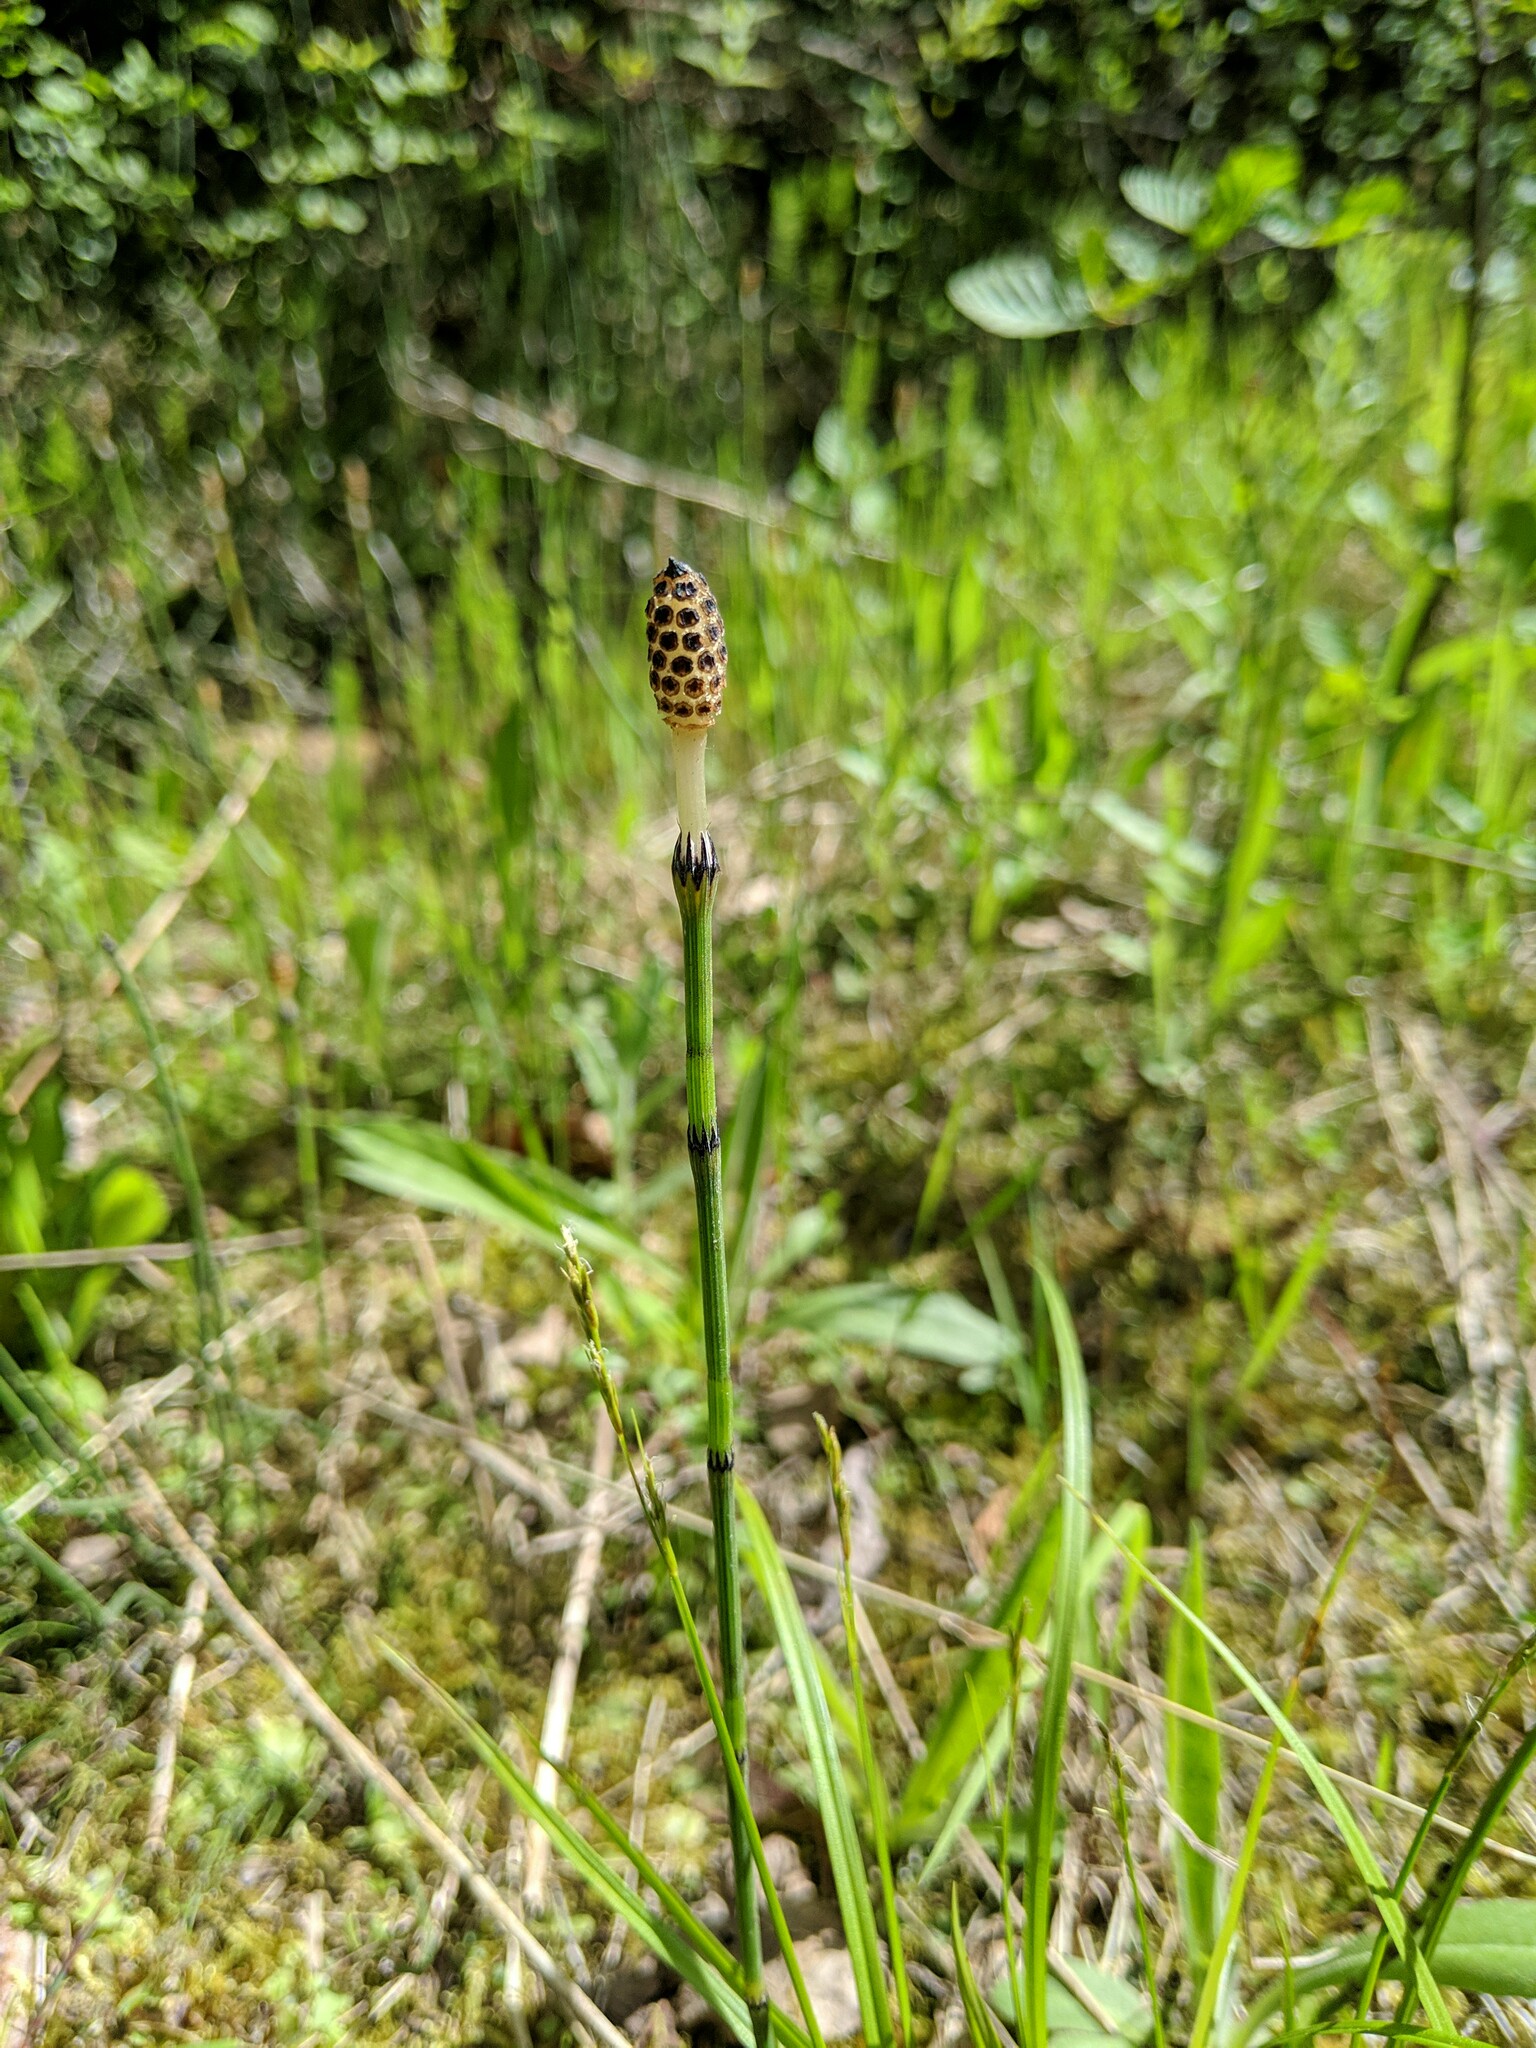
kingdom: Plantae
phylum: Tracheophyta
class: Polypodiopsida
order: Equisetales
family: Equisetaceae
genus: Equisetum
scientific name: Equisetum variegatum
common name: Variegated horsetail
